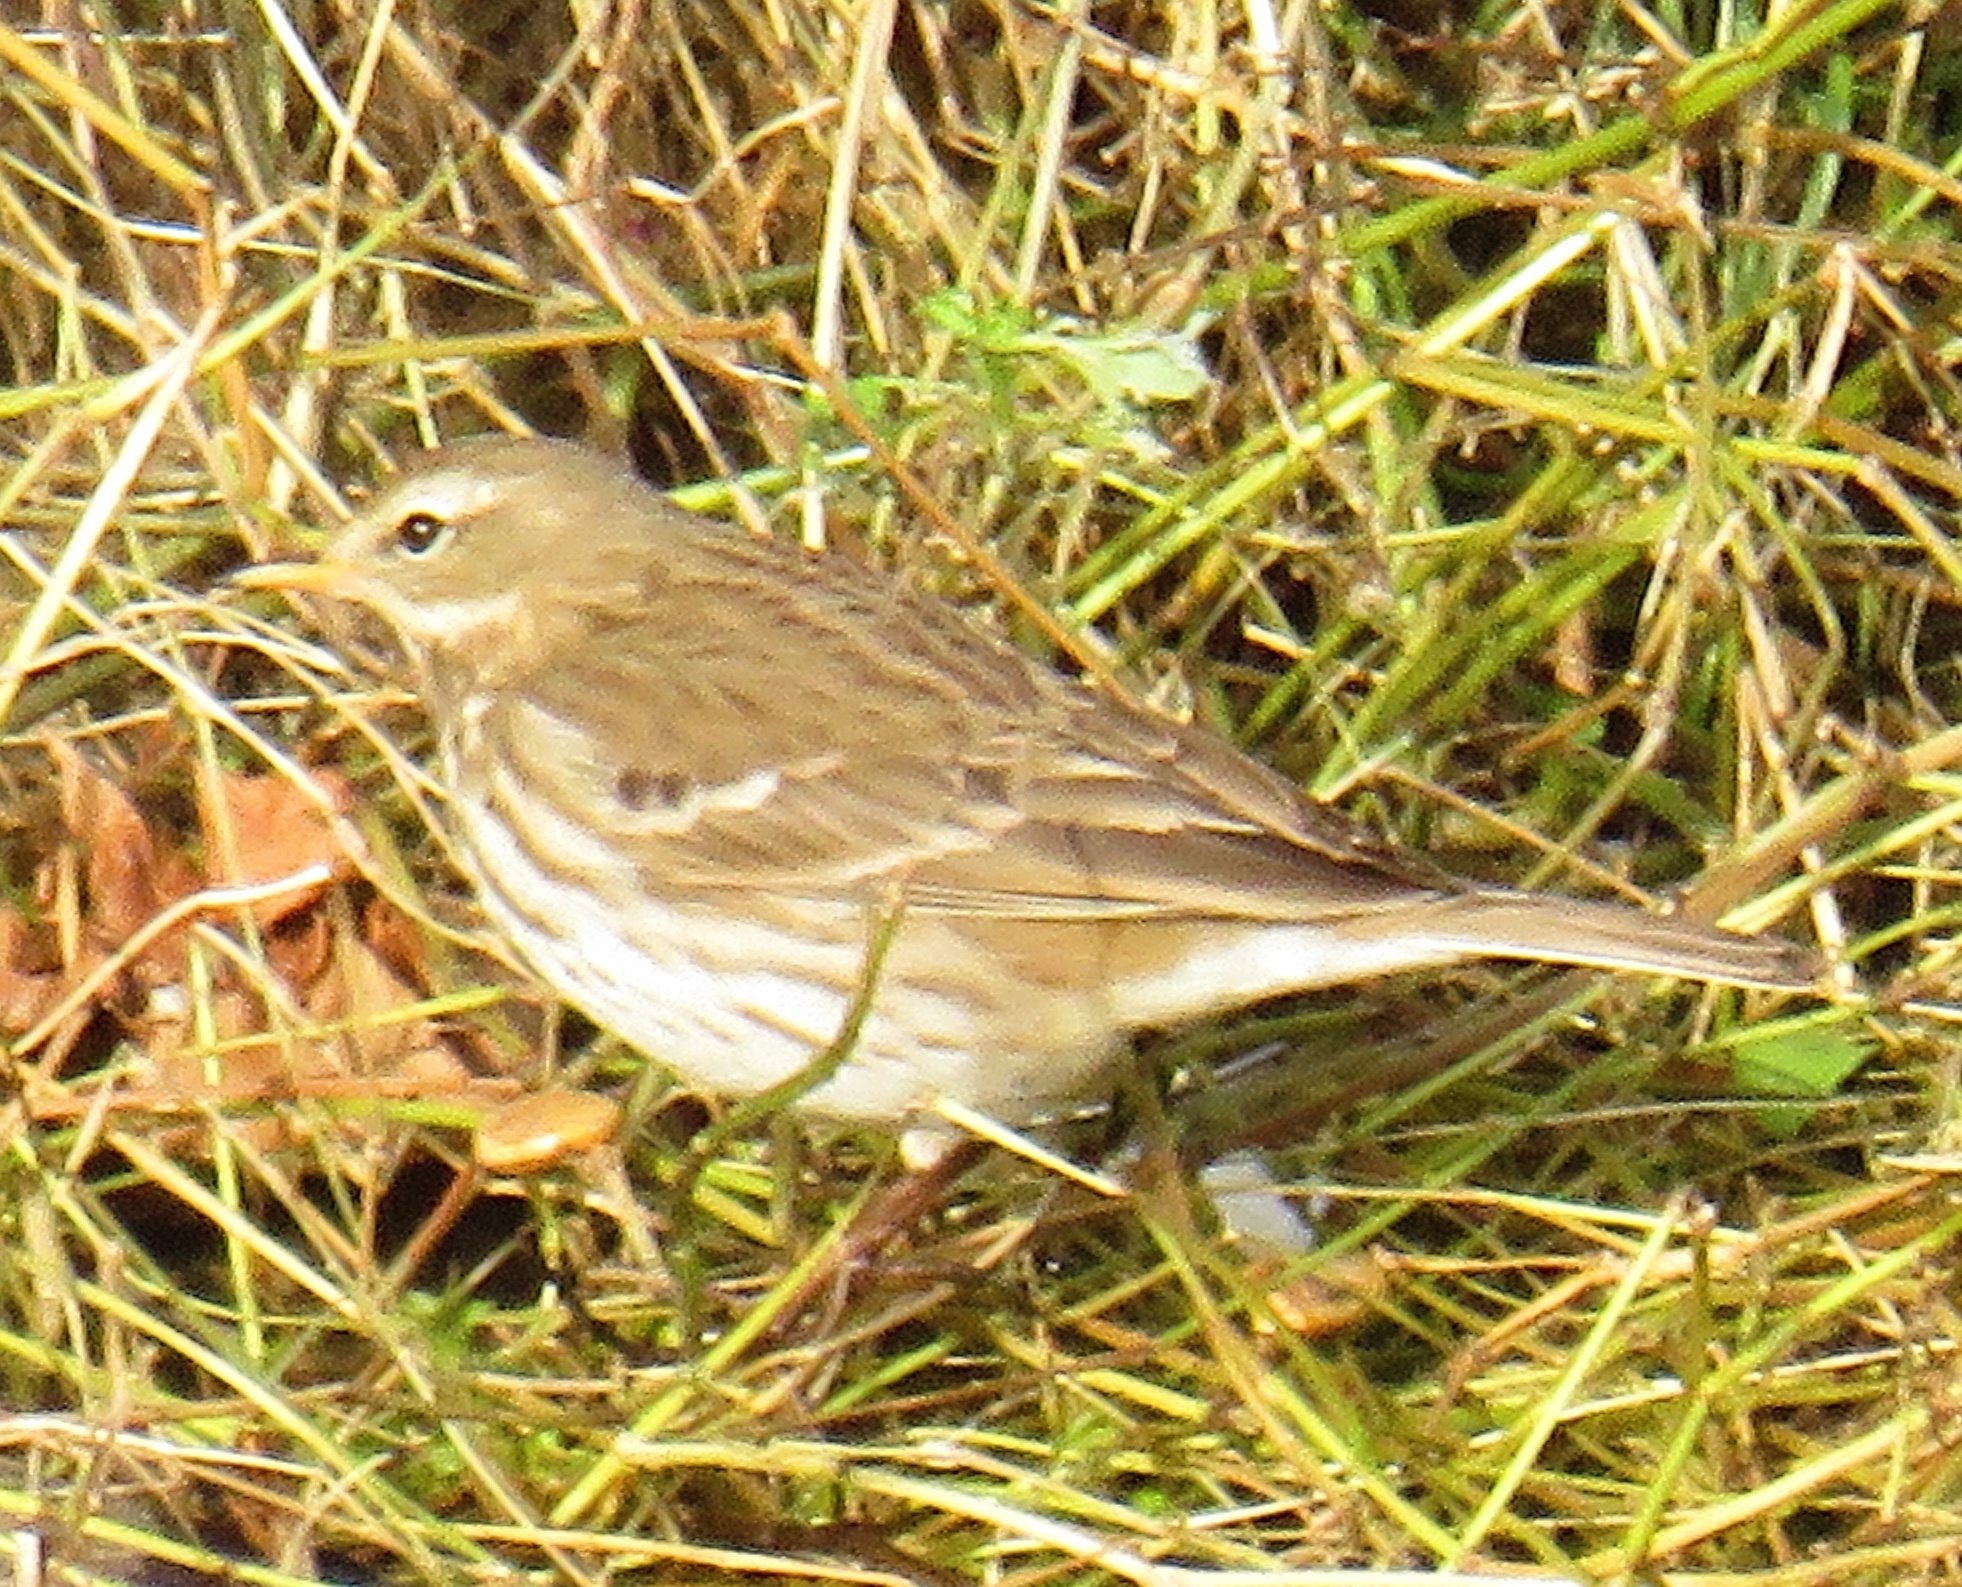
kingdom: Animalia
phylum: Chordata
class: Aves
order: Passeriformes
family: Motacillidae
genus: Anthus
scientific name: Anthus spinoletta
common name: Water pipit
